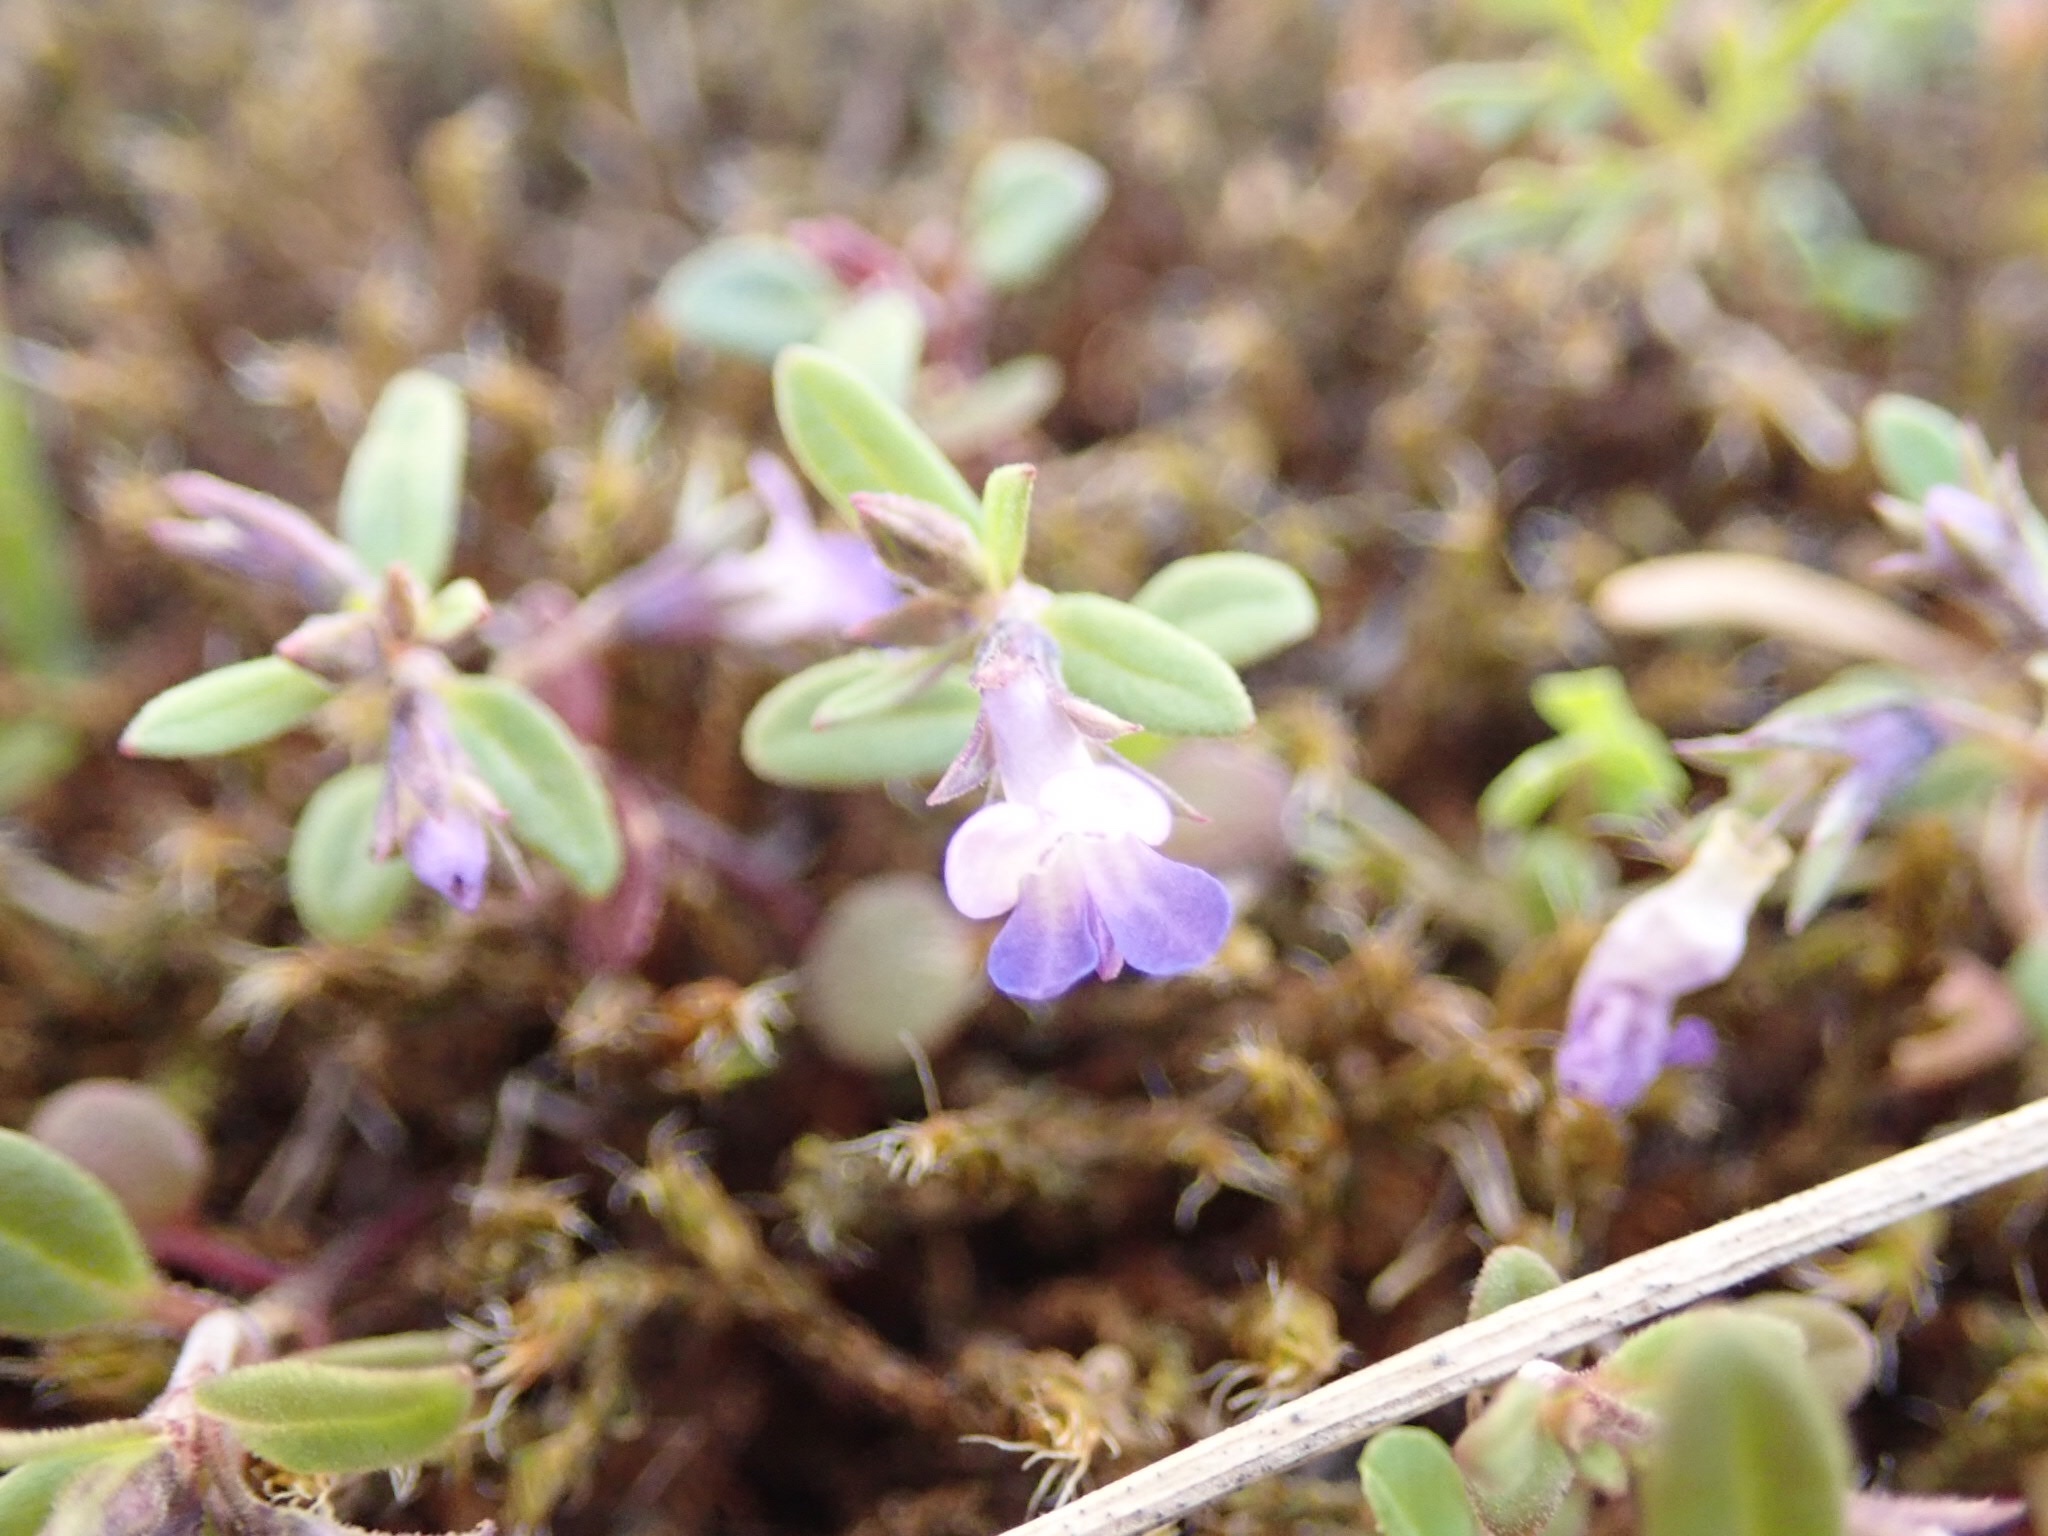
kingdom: Plantae
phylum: Tracheophyta
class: Magnoliopsida
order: Lamiales
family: Plantaginaceae
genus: Collinsia
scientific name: Collinsia parviflora
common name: Blue-lips
